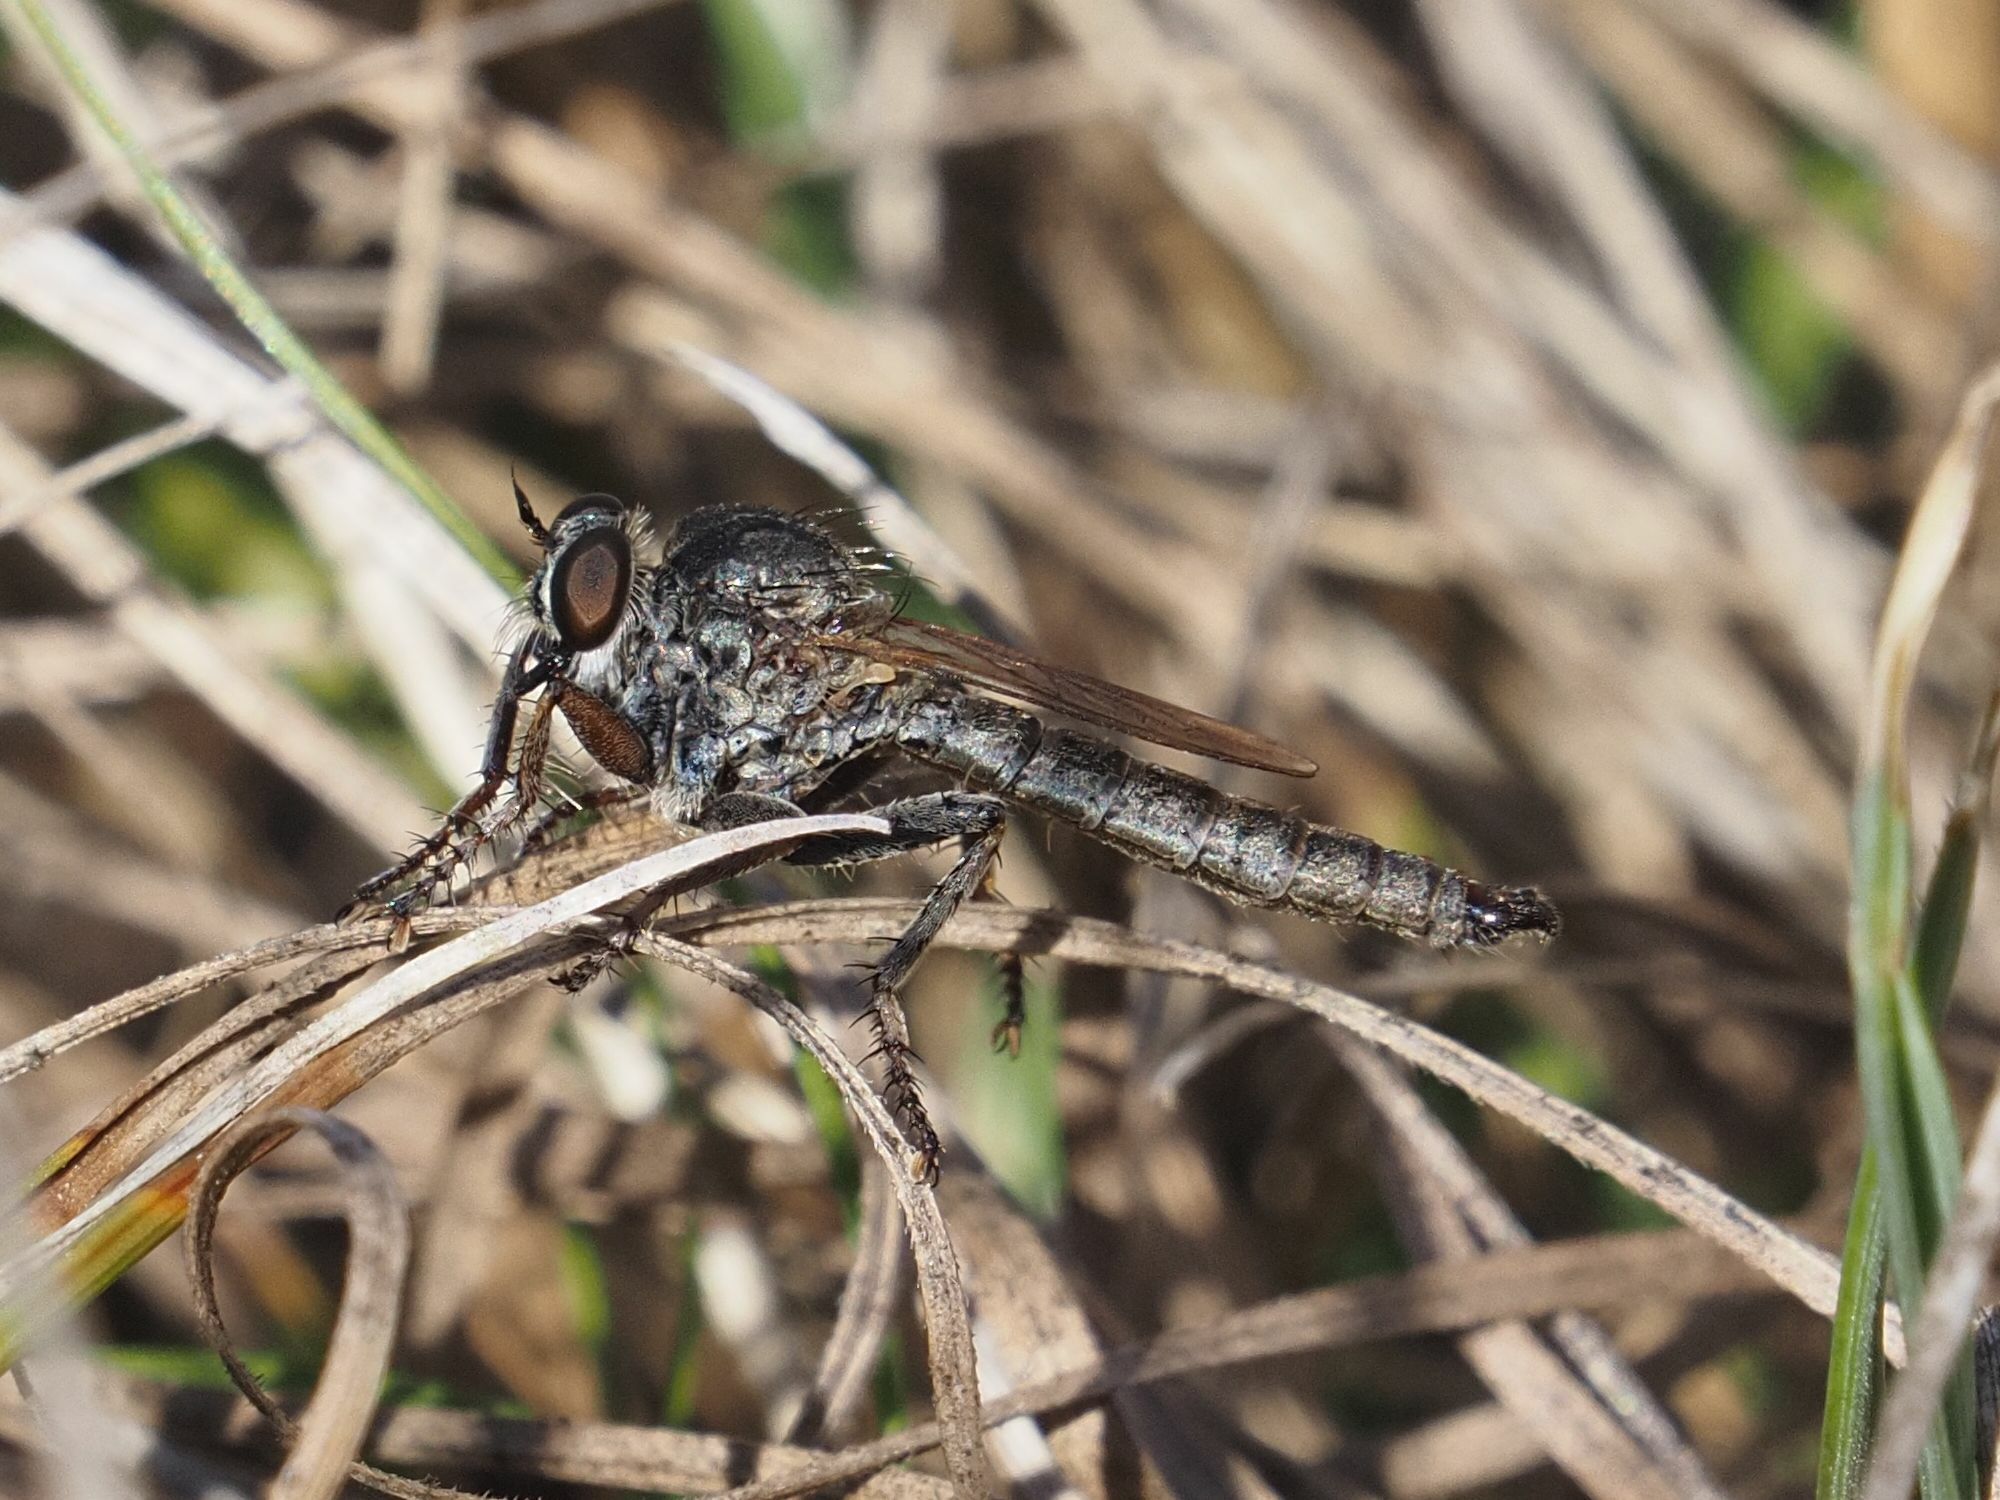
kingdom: Animalia
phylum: Arthropoda
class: Insecta
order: Diptera
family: Asilidae
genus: Epitriptus
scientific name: Epitriptus setosulus
